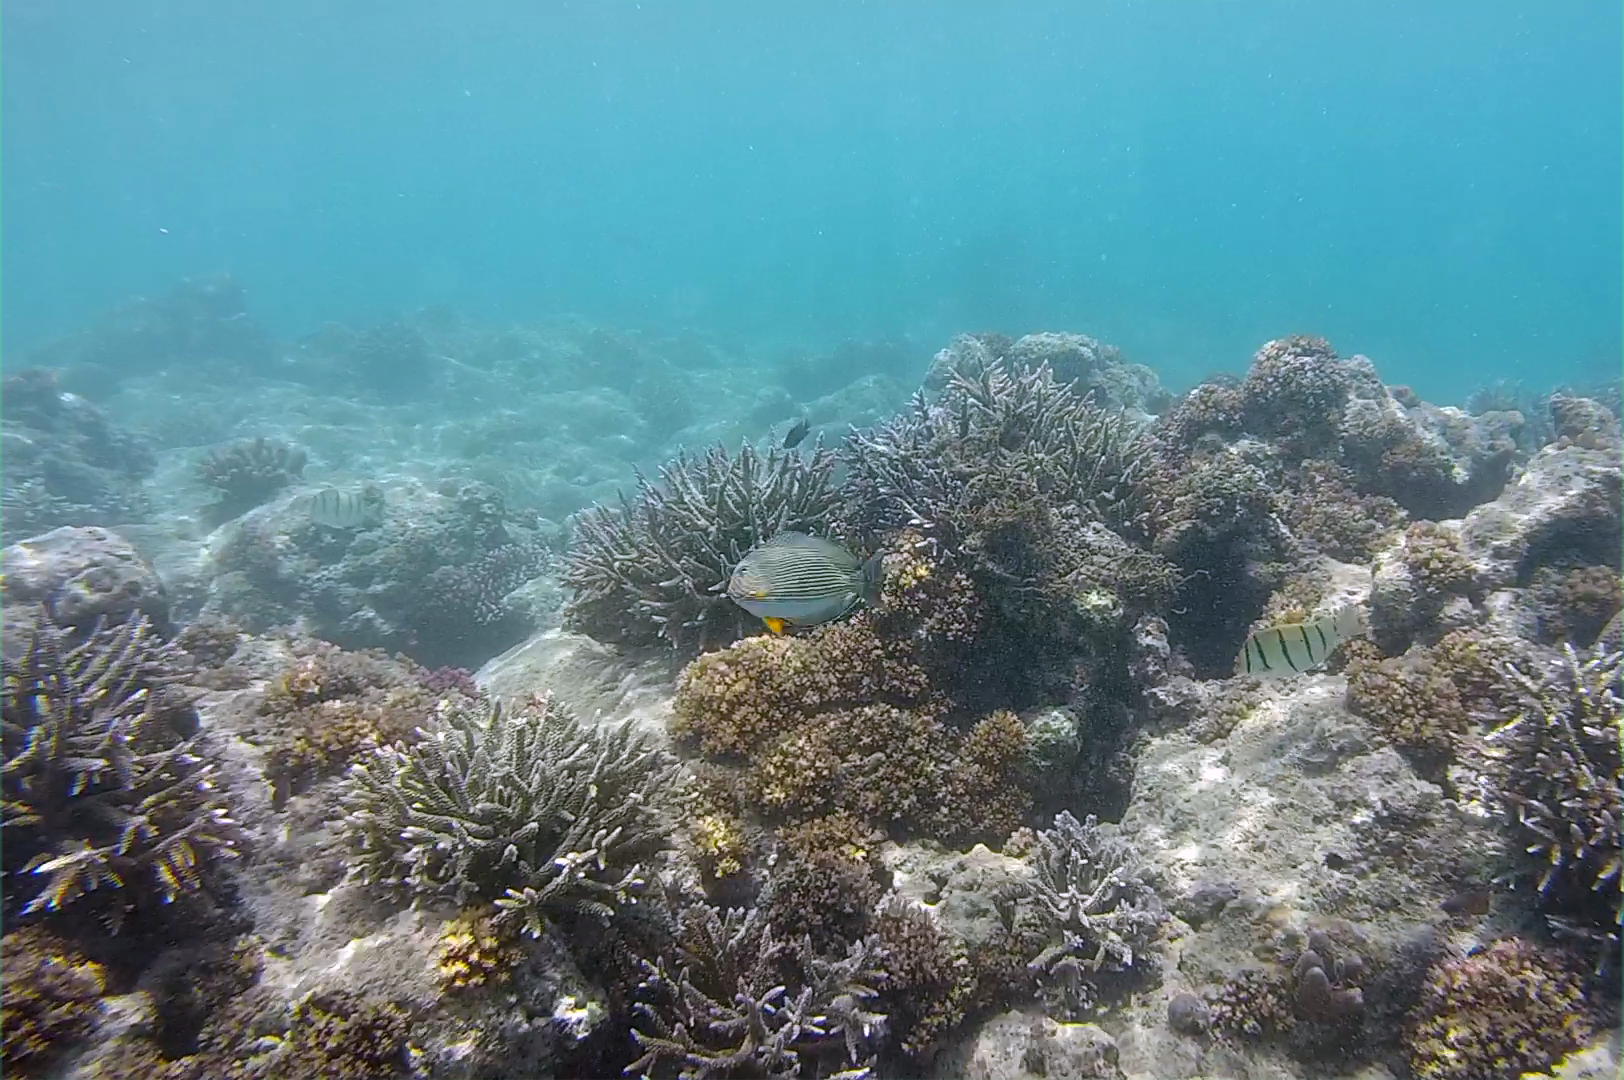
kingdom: Animalia
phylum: Chordata
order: Perciformes
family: Acanthuridae
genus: Acanthurus
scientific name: Acanthurus lineatus
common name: Striped surgeonfish
